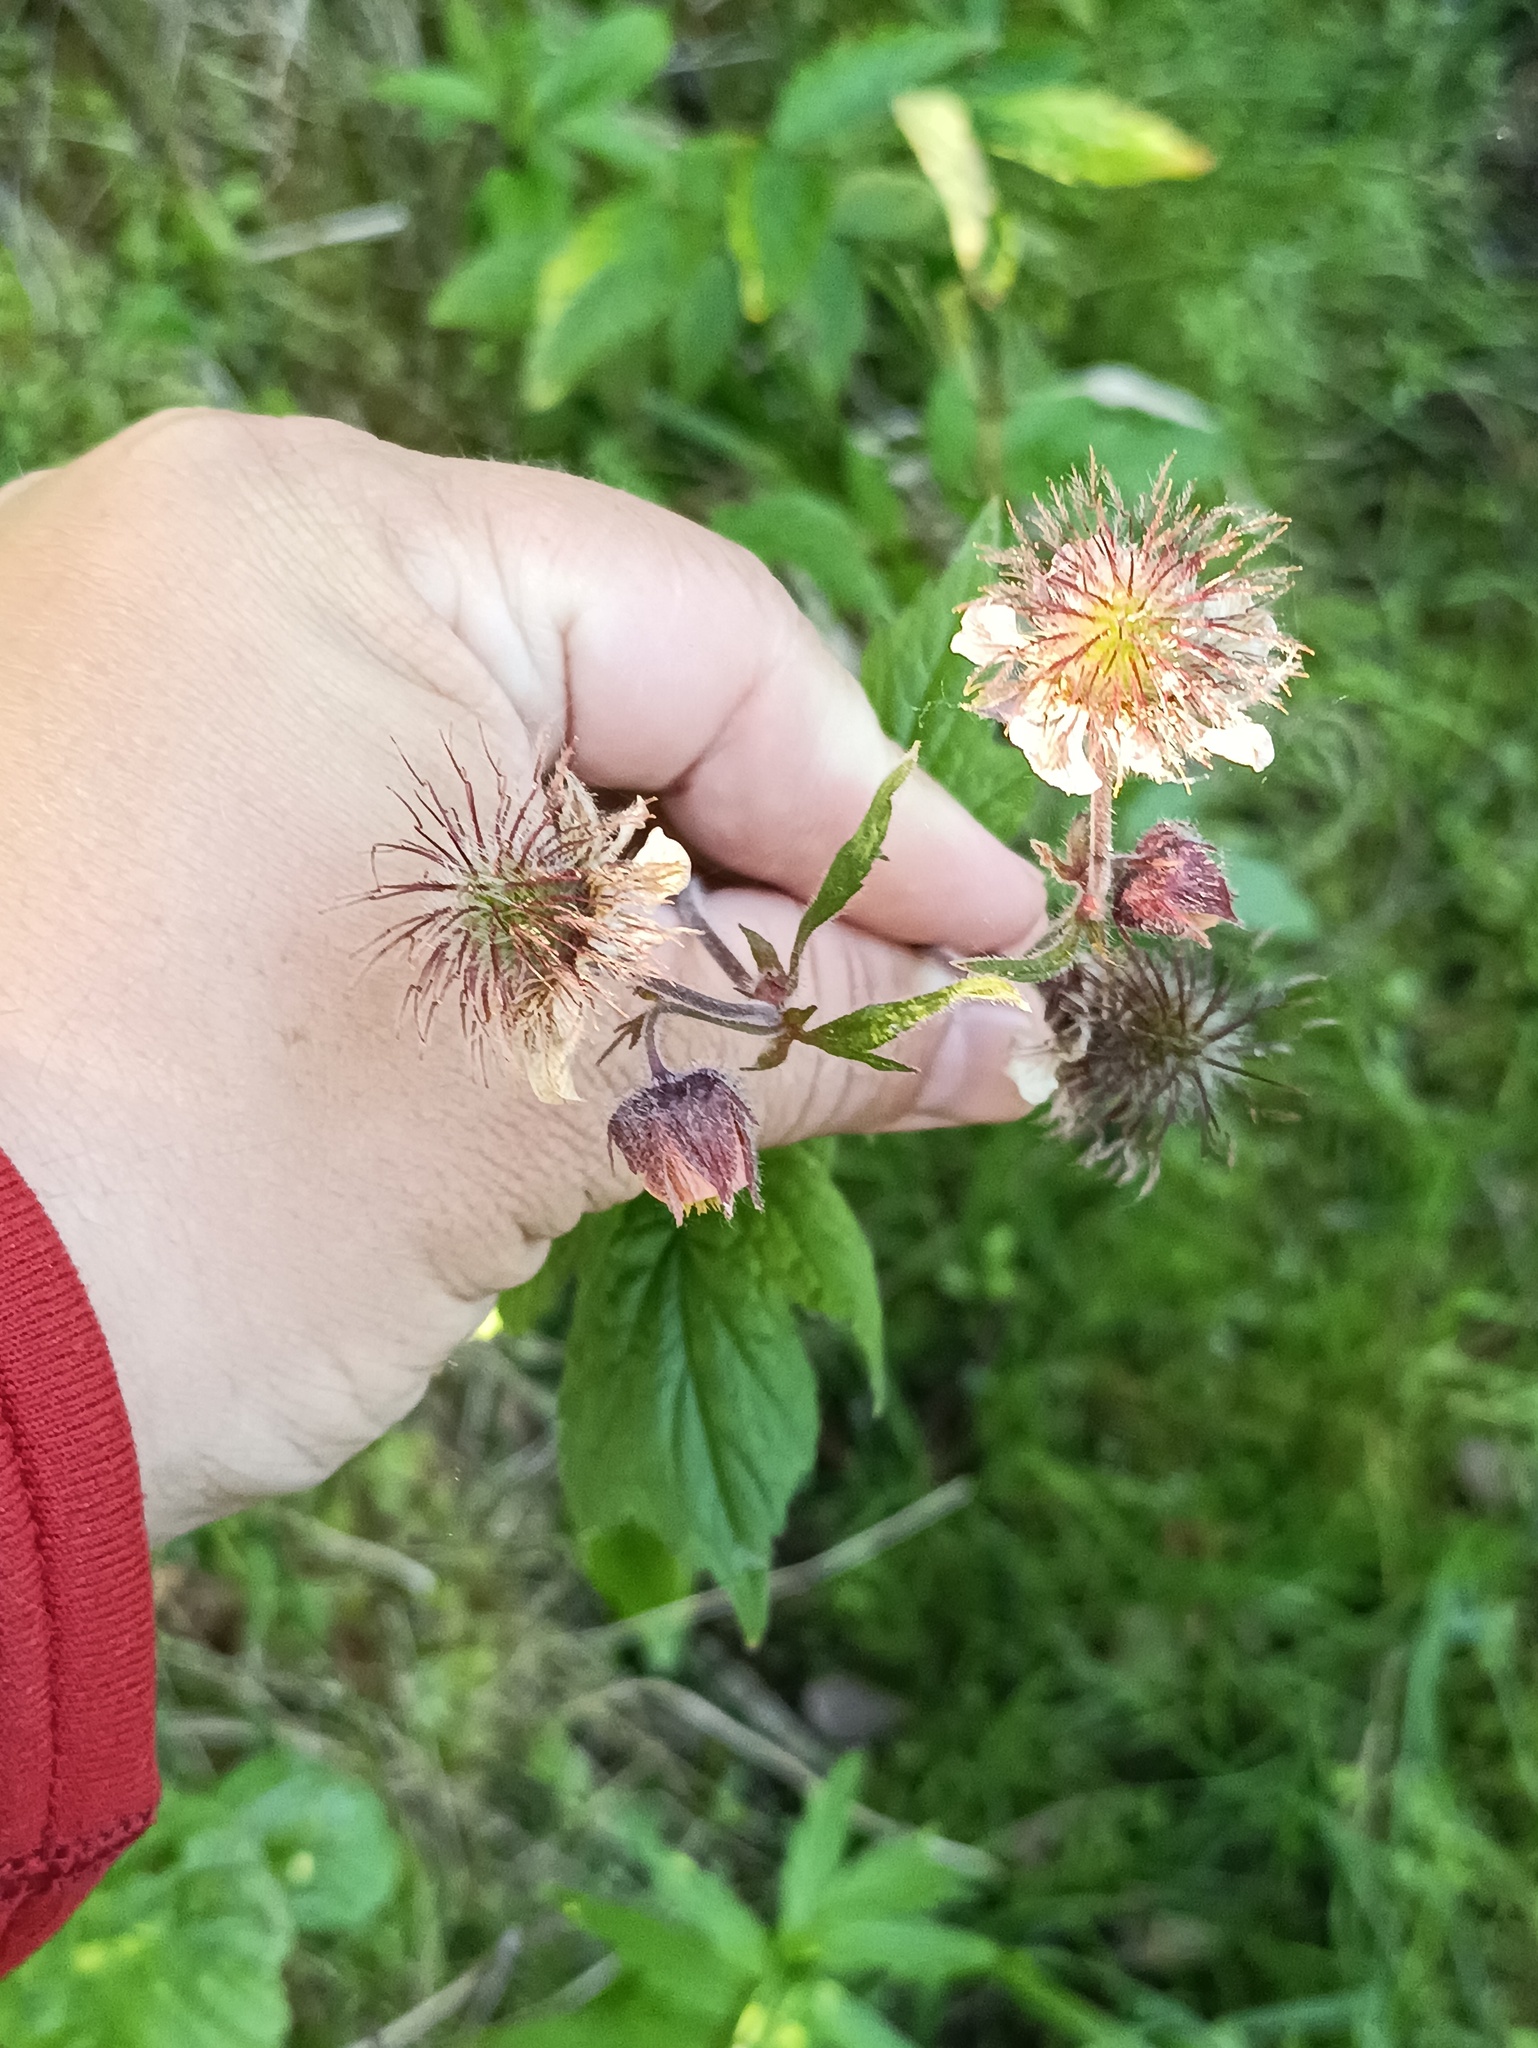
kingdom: Plantae
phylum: Tracheophyta
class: Magnoliopsida
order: Rosales
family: Rosaceae
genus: Geum
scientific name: Geum rivale
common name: Water avens
